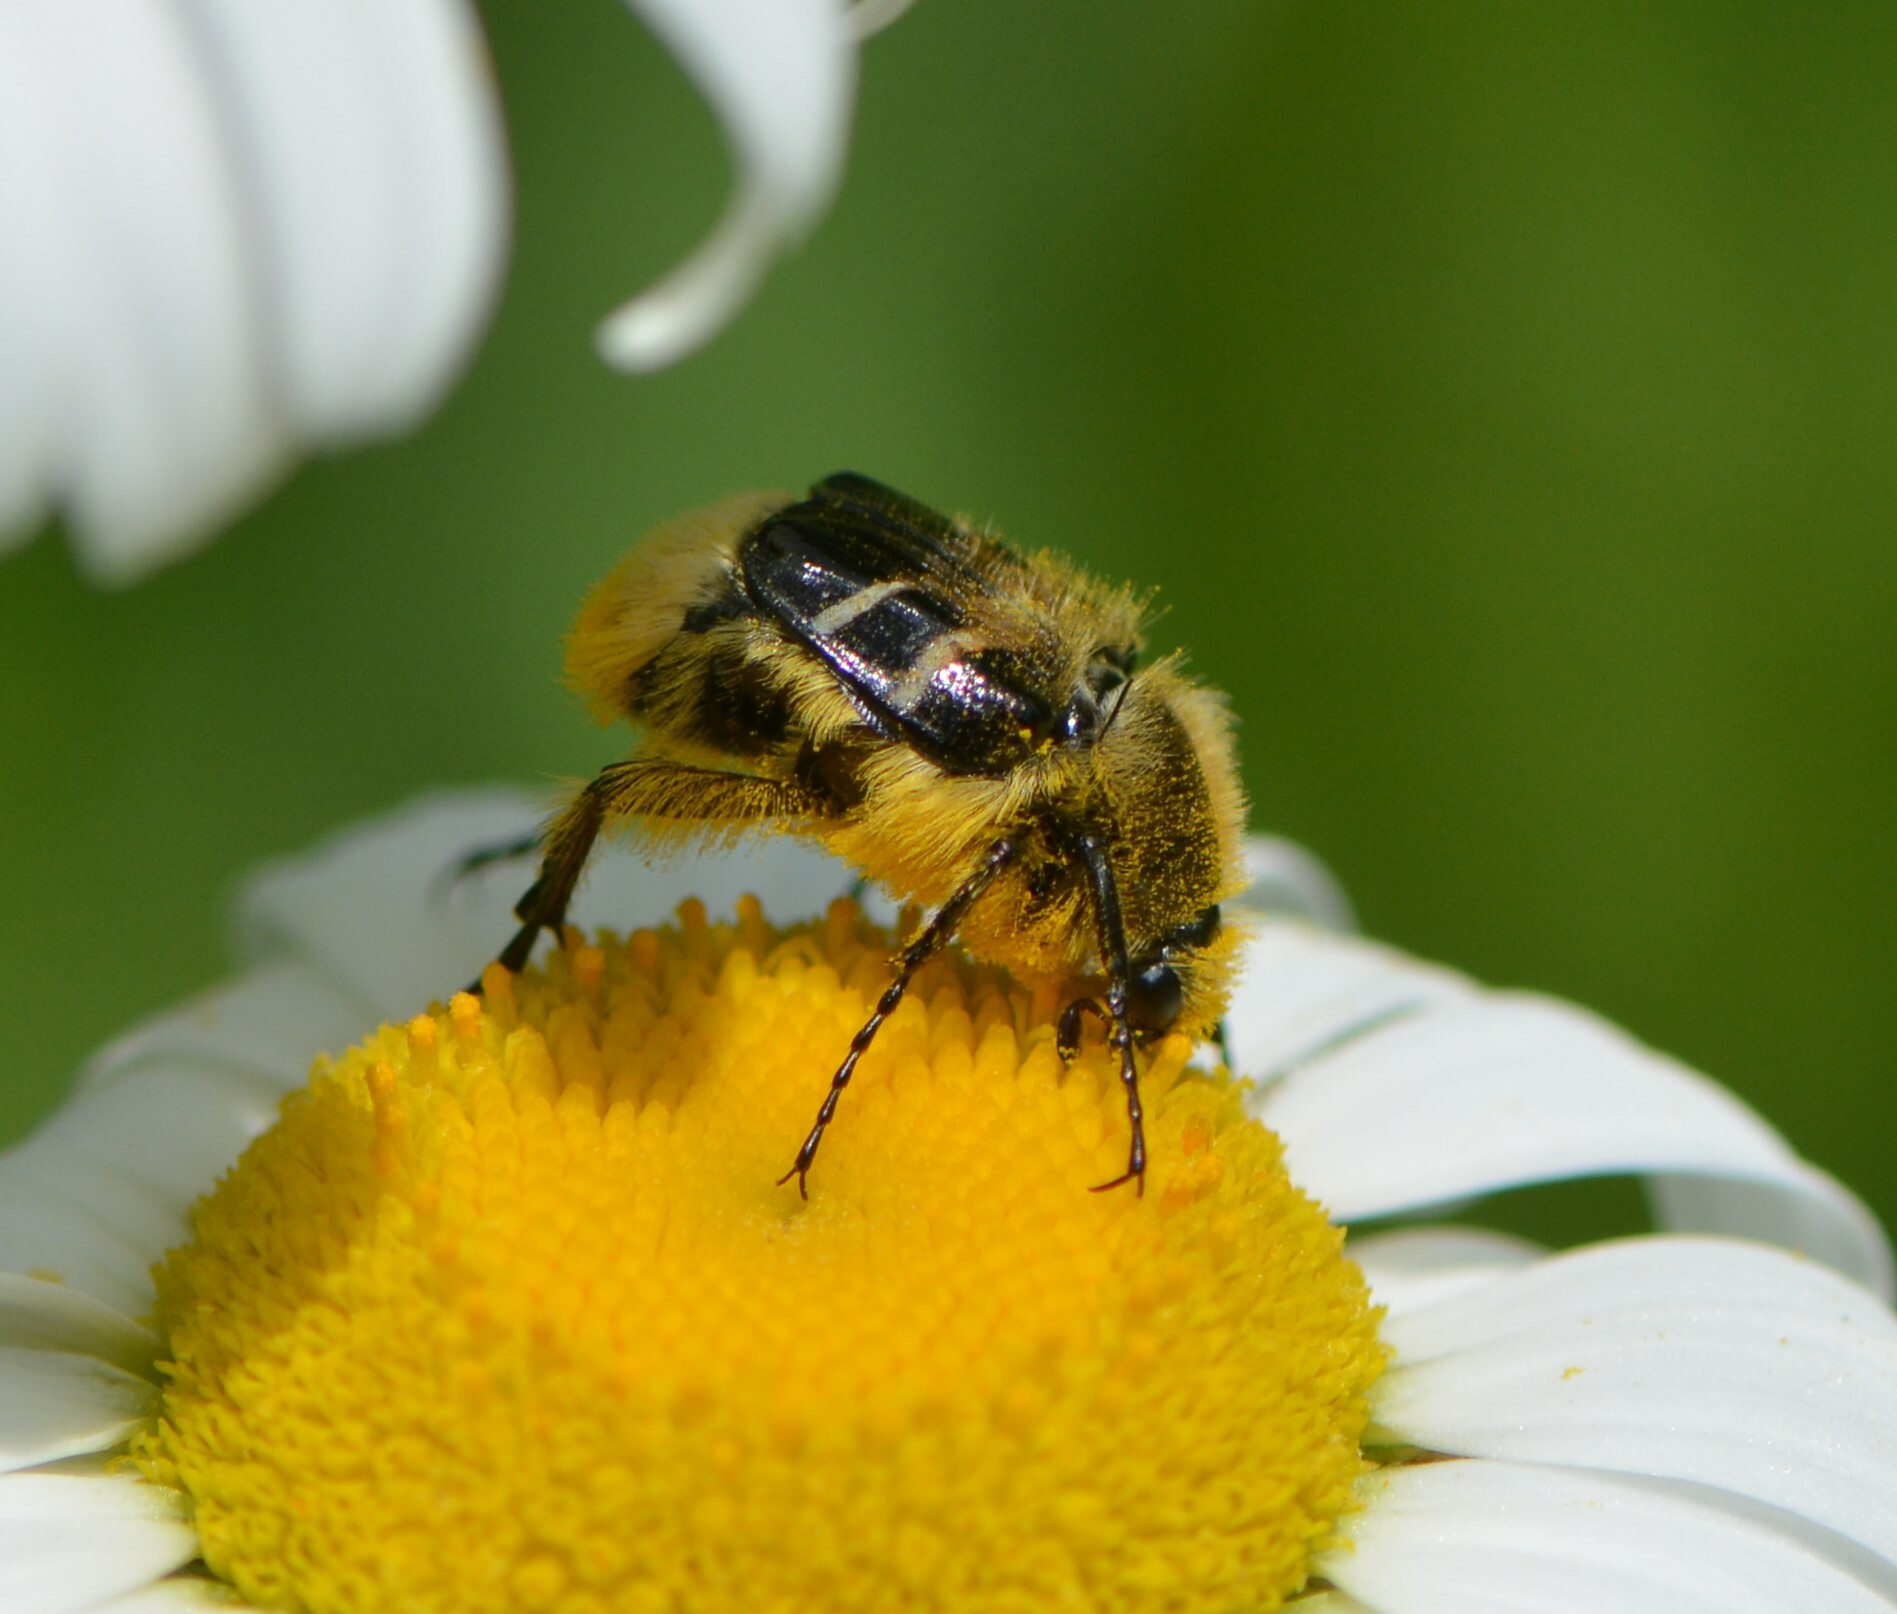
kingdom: Animalia
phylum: Arthropoda
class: Insecta
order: Coleoptera
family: Scarabaeidae
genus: Trichiotinus
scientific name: Trichiotinus assimilis
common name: Bee-mimic beetle
